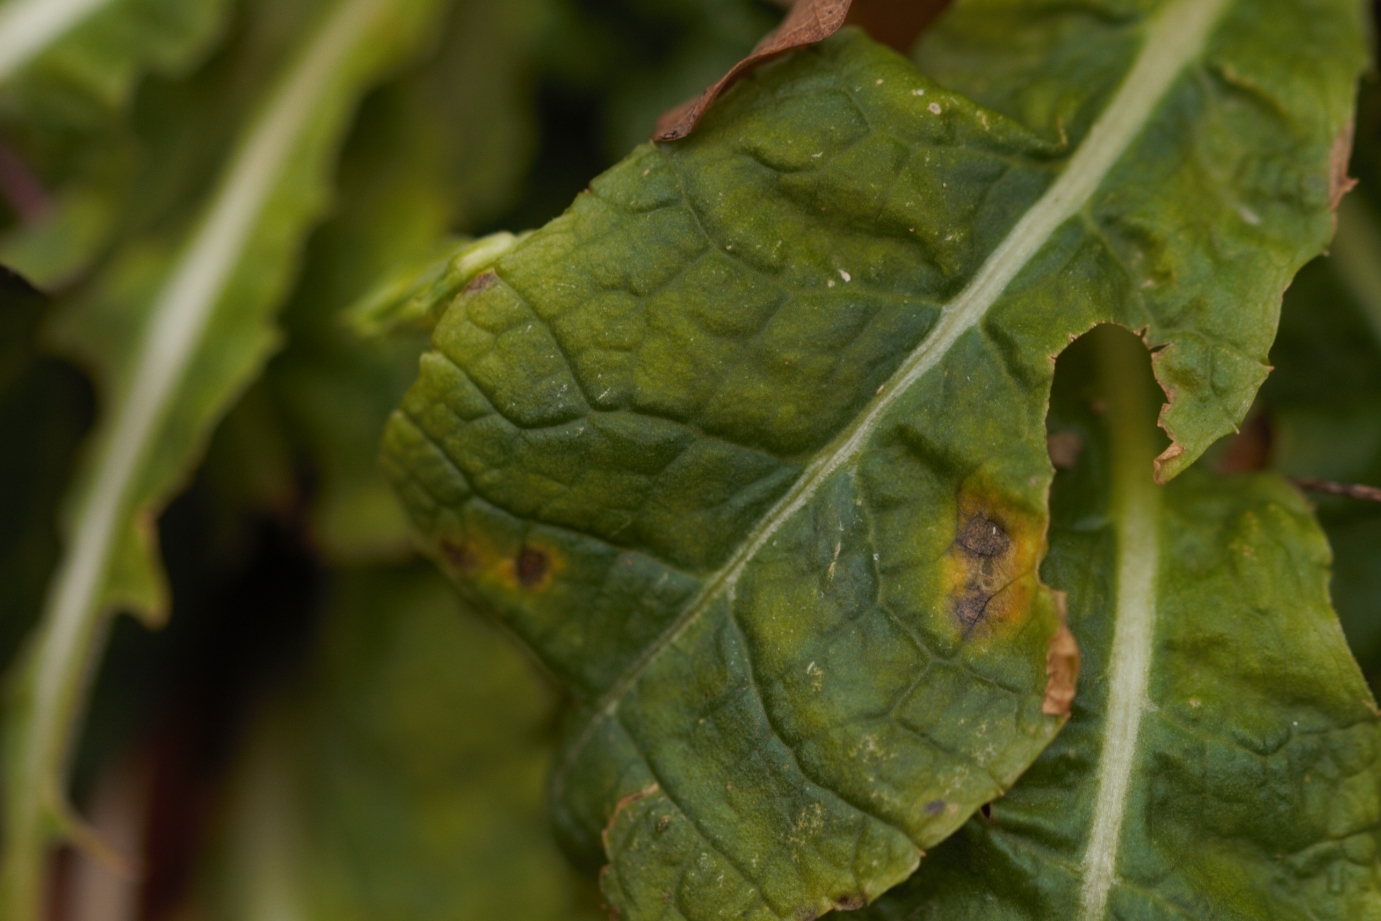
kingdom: Plantae
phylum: Tracheophyta
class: Magnoliopsida
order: Ericales
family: Primulaceae
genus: Primula
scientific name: Primula elatior
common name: Oxlip
